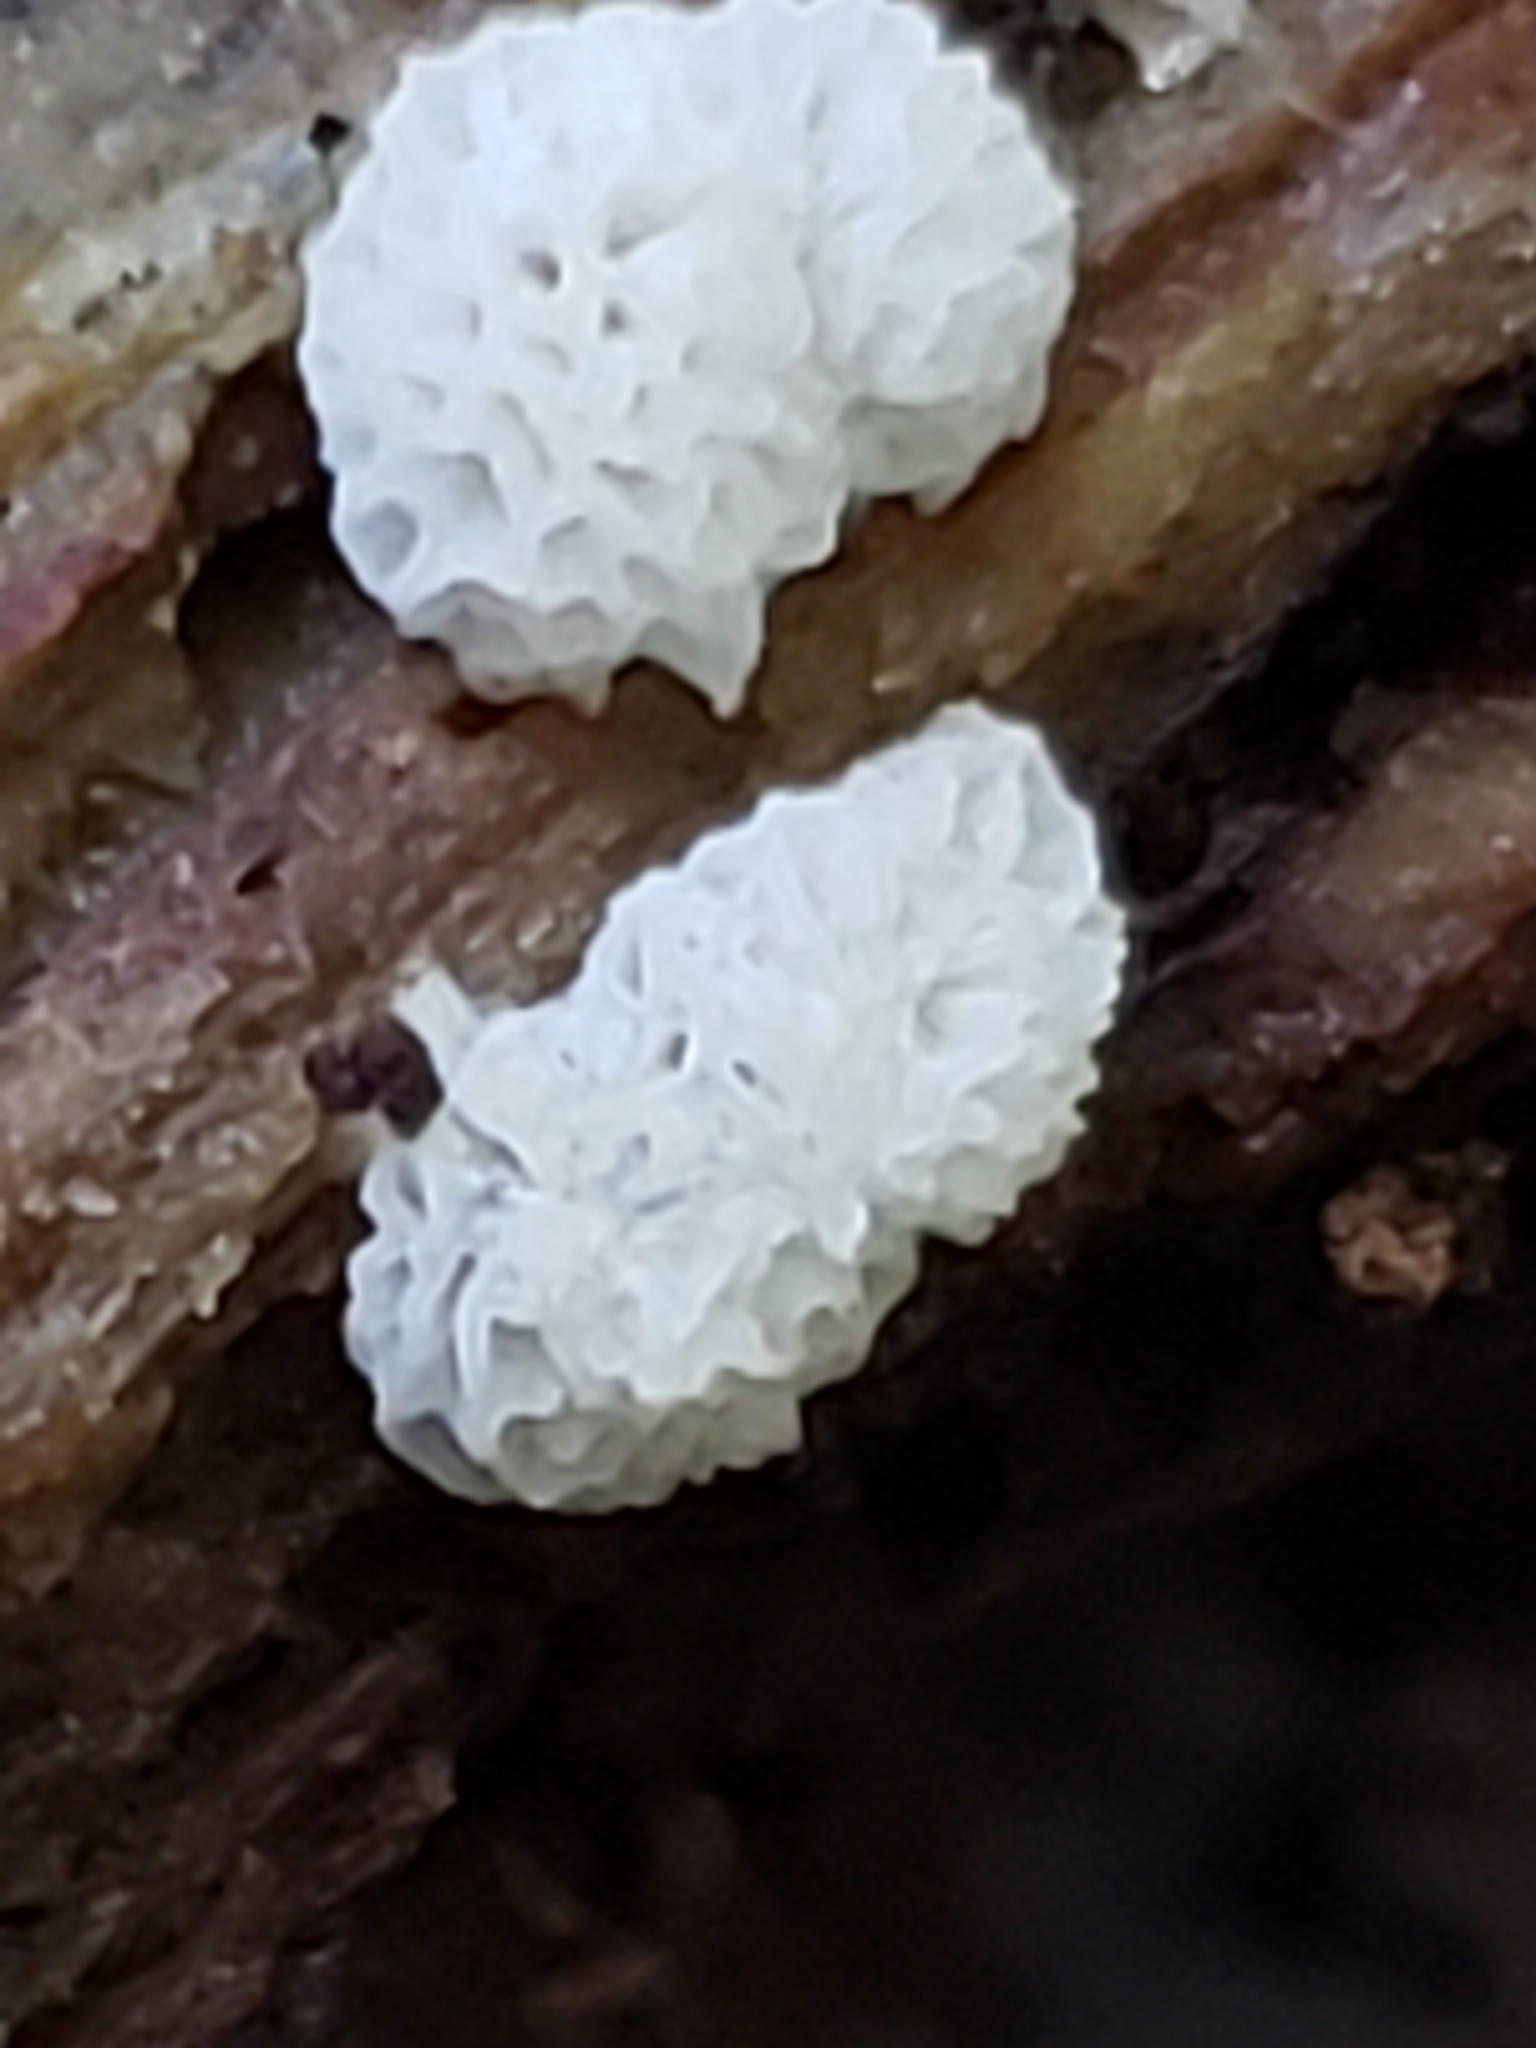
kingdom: Protozoa
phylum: Mycetozoa
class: Protosteliomycetes
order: Ceratiomyxales
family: Ceratiomyxaceae
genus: Ceratiomyxa
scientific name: Ceratiomyxa fruticulosa
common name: Honeycomb coral slime mold
